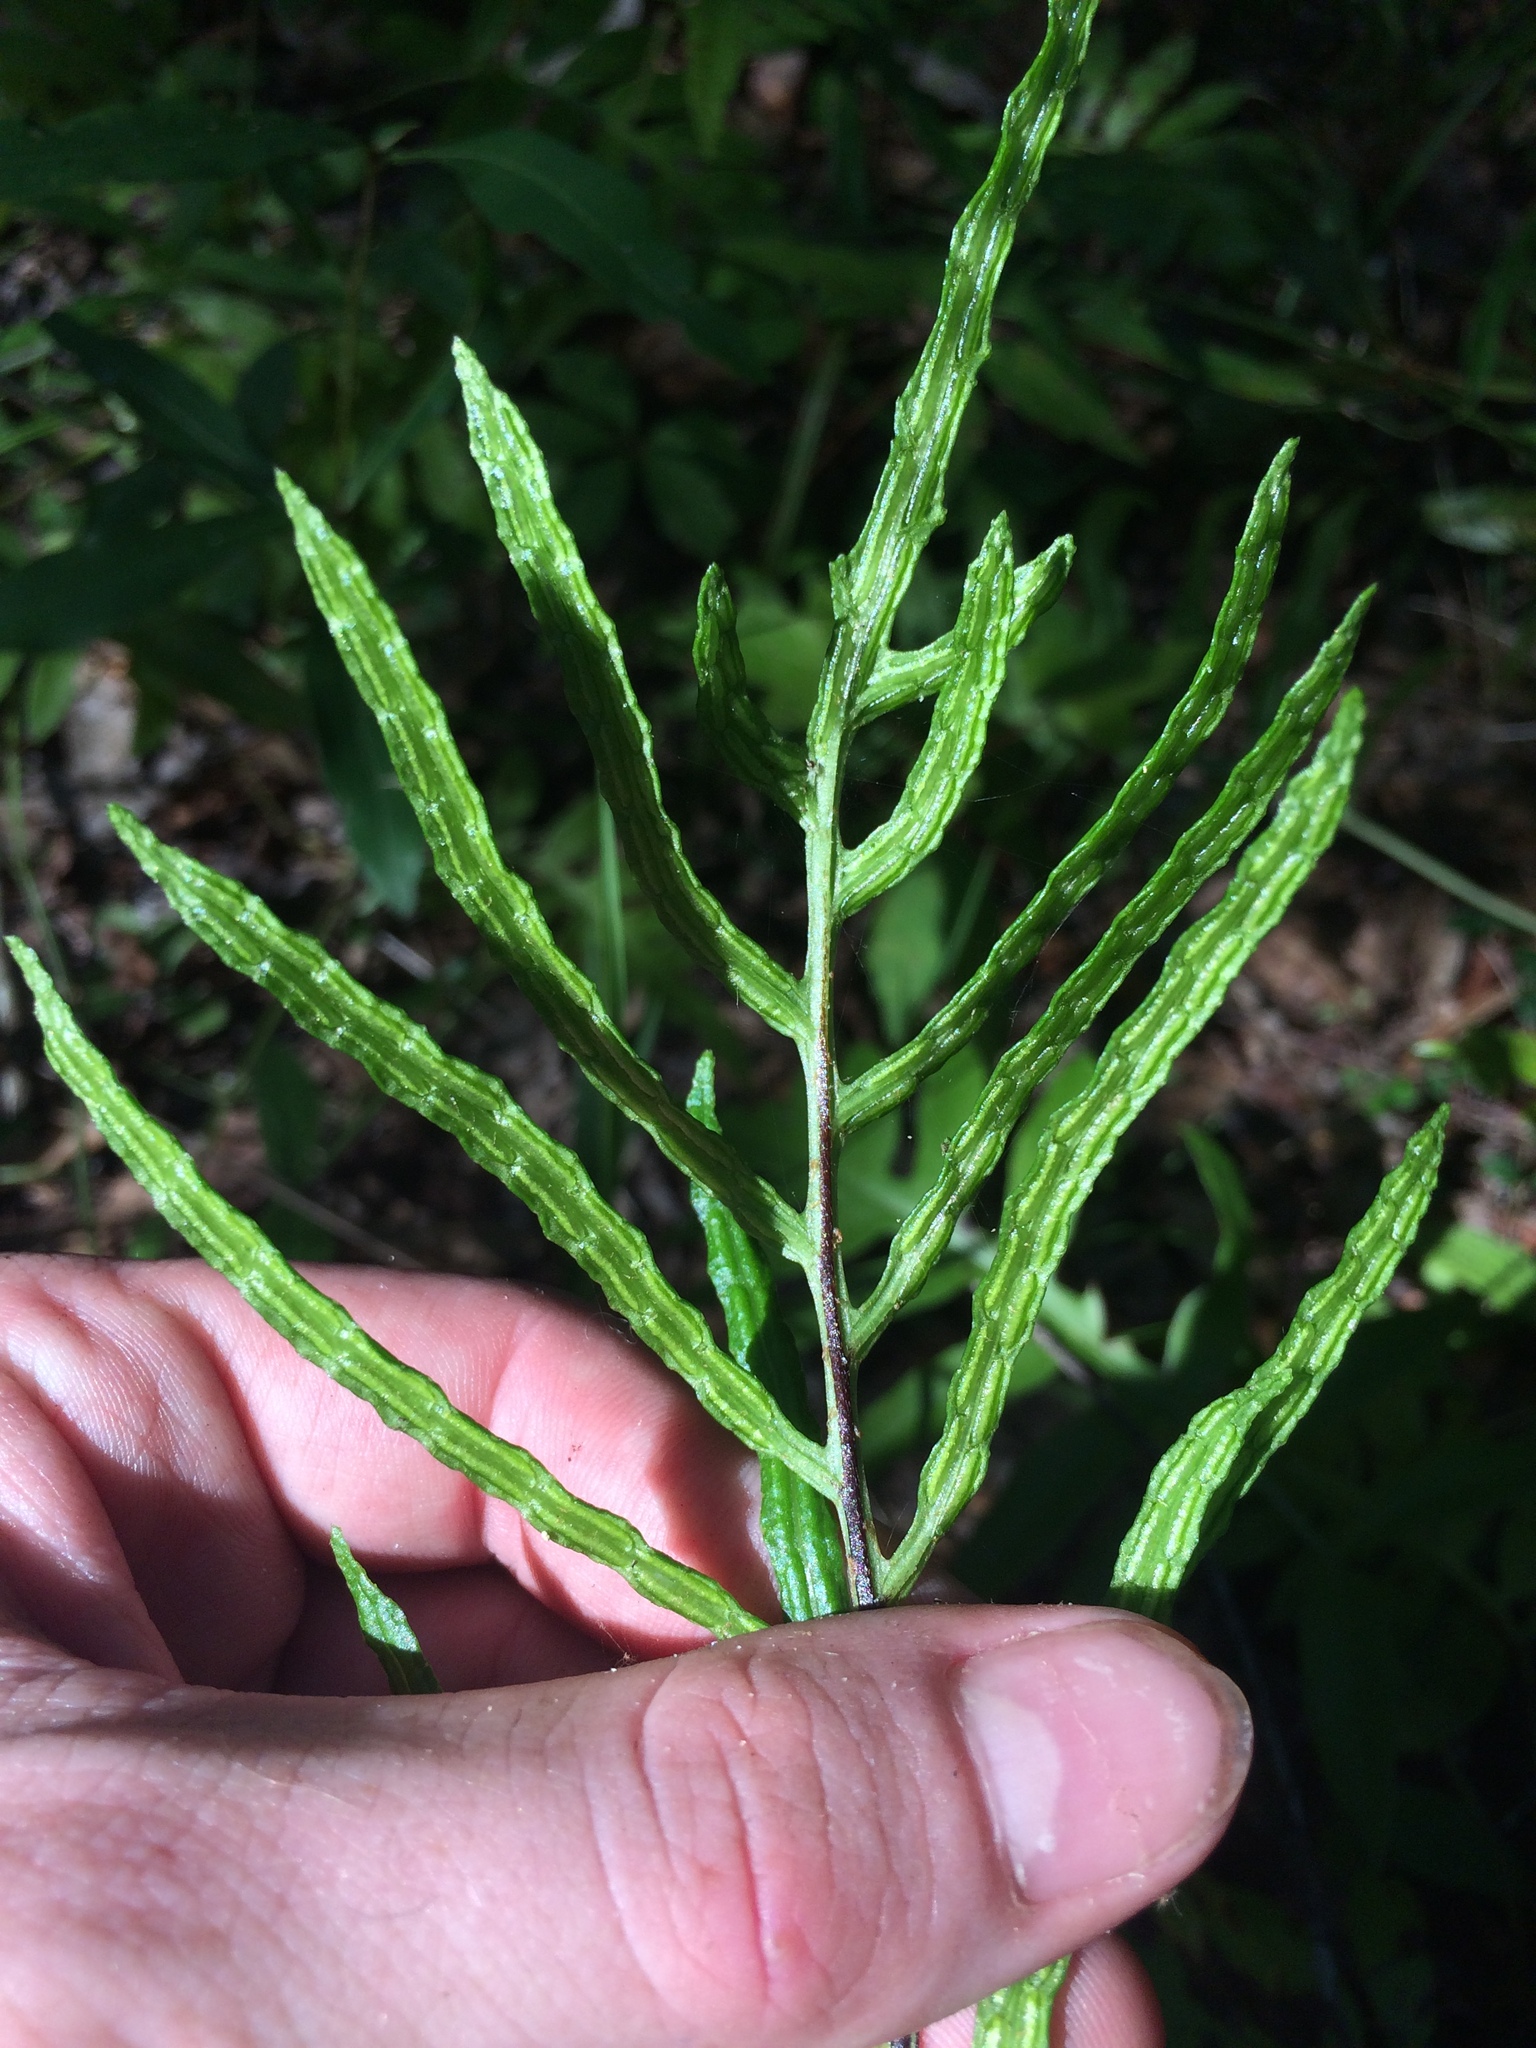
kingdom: Plantae
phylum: Tracheophyta
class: Polypodiopsida
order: Polypodiales
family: Blechnaceae
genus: Lorinseria
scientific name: Lorinseria areolata
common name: Dwarf chain fern
